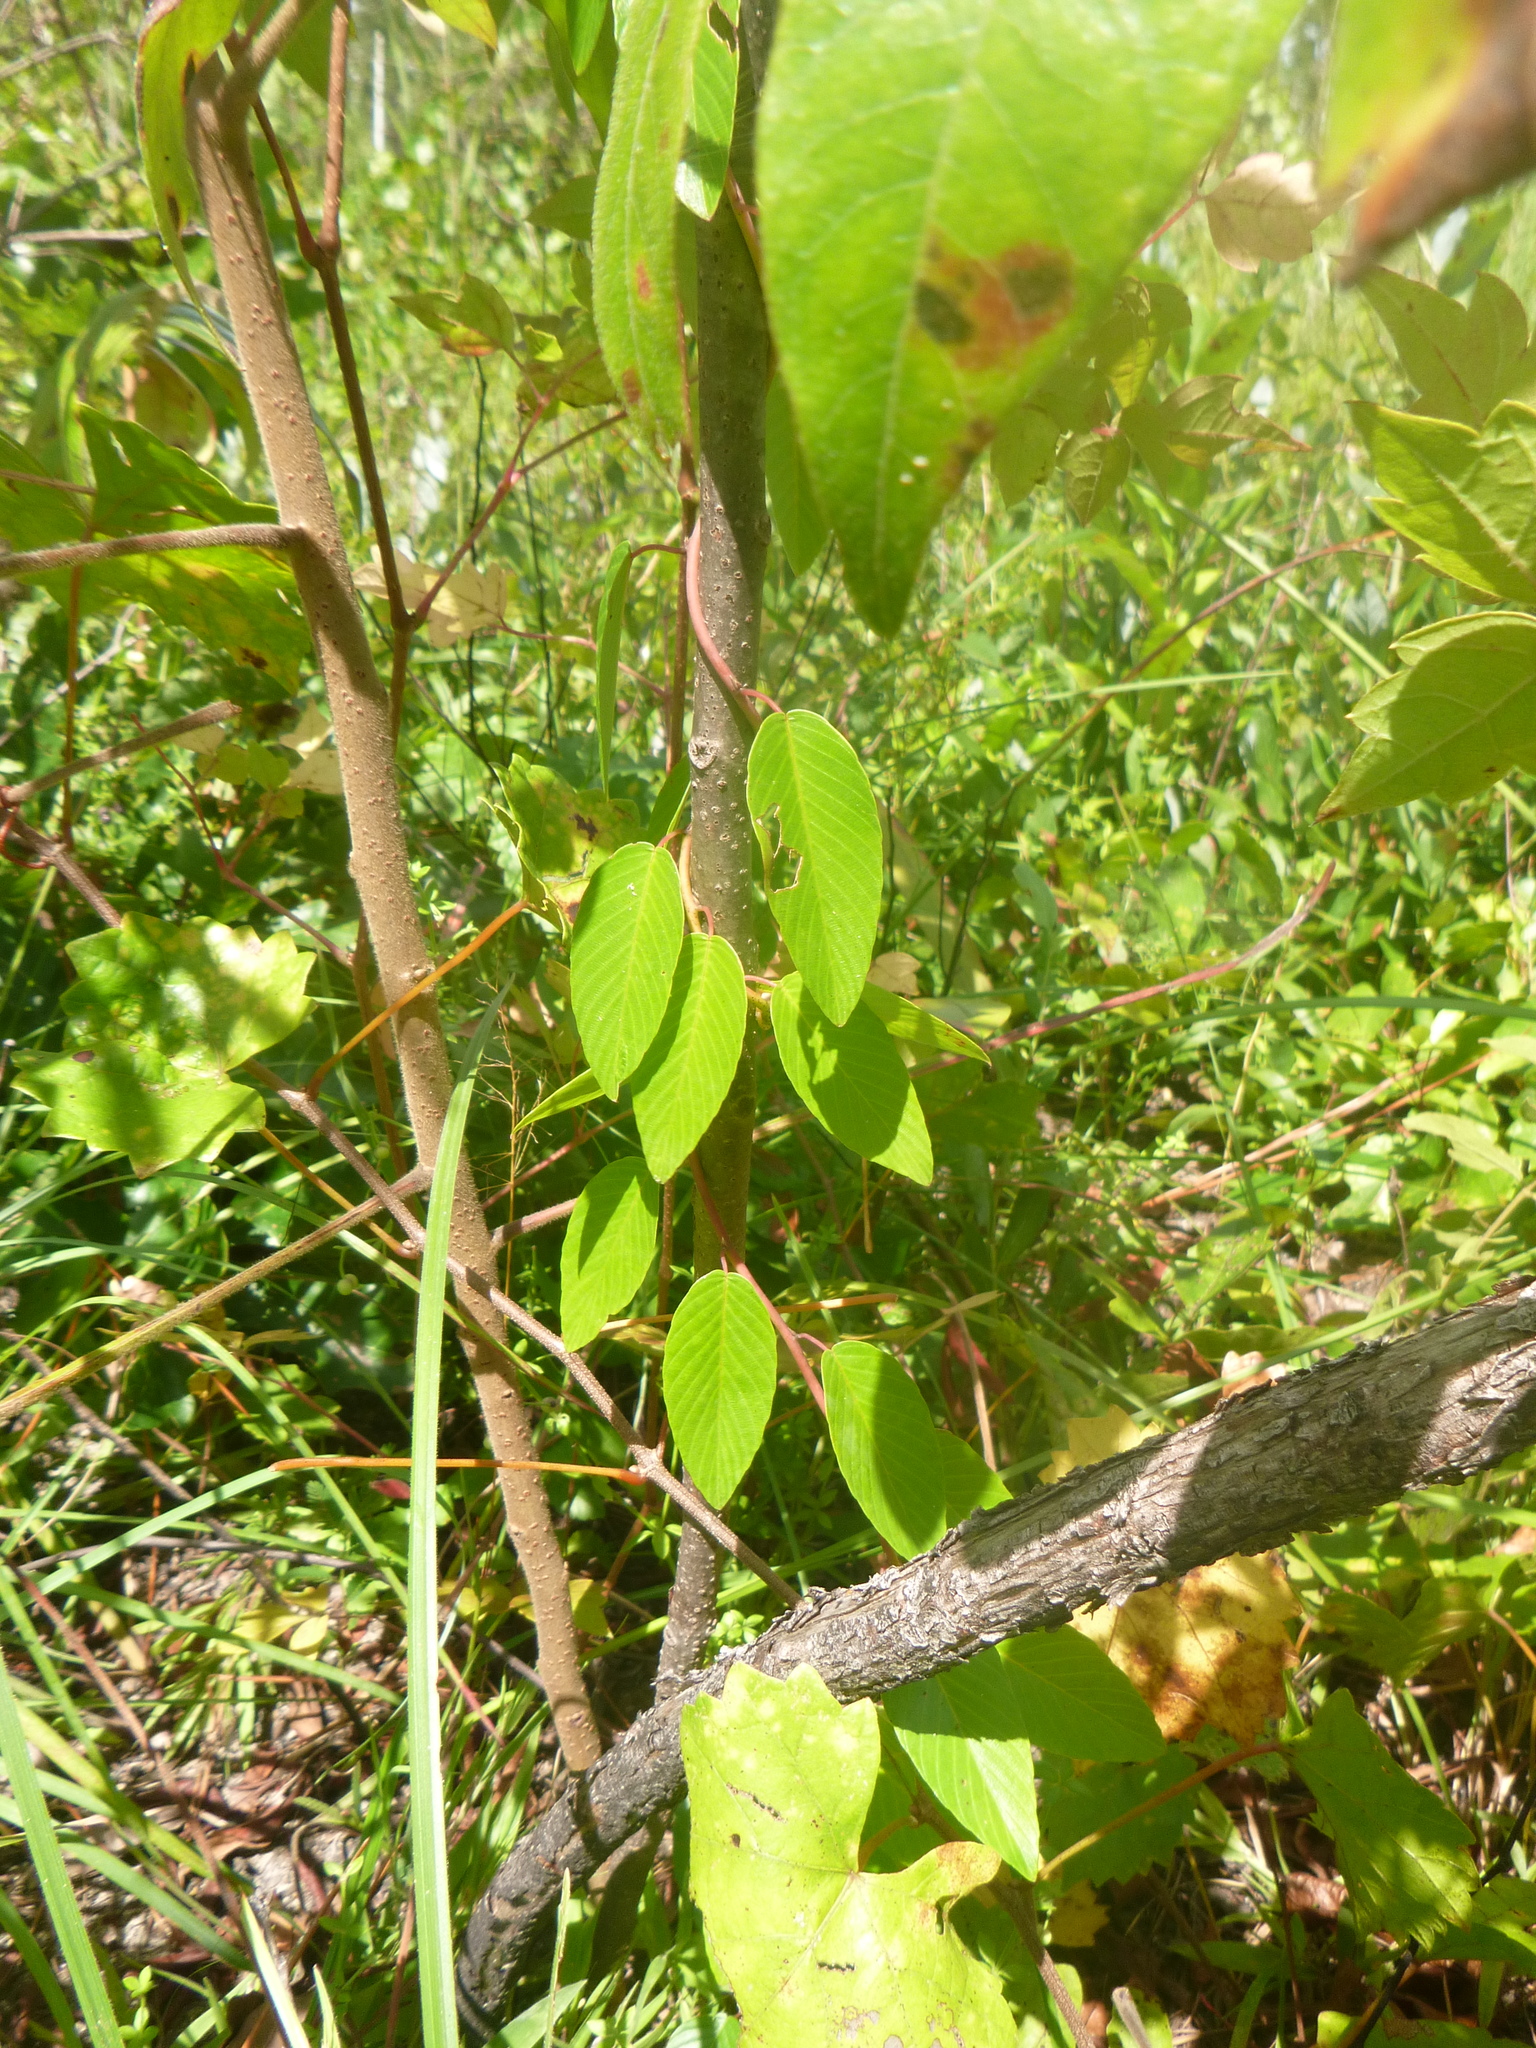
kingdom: Plantae
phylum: Tracheophyta
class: Magnoliopsida
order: Rosales
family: Rhamnaceae
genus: Berchemia
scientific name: Berchemia scandens
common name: Supplejack
